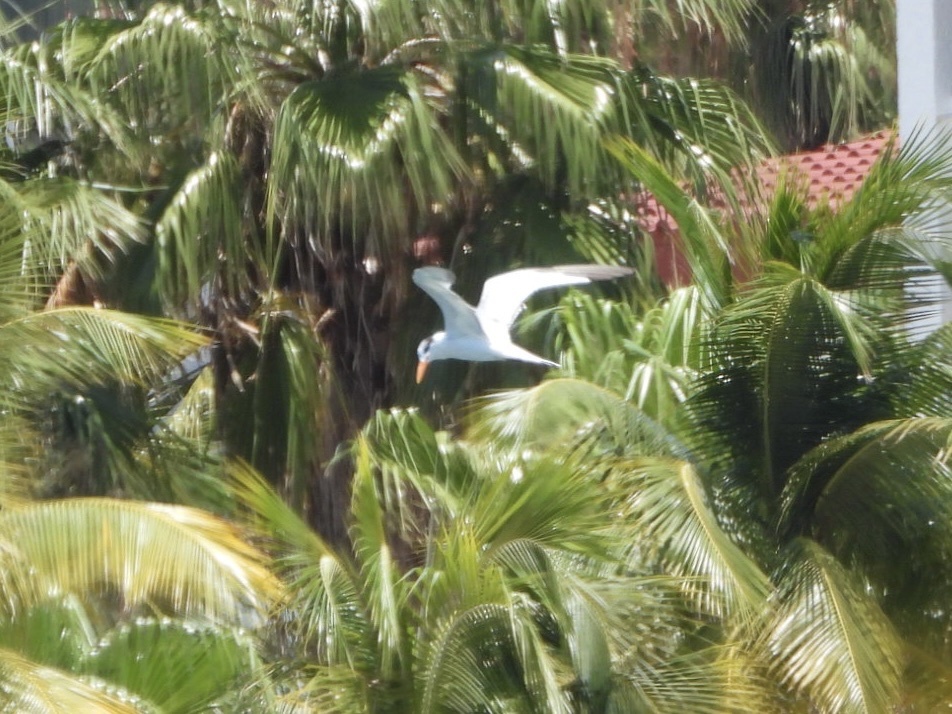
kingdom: Animalia
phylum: Chordata
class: Aves
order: Charadriiformes
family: Laridae
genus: Thalasseus
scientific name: Thalasseus maximus
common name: Royal tern
